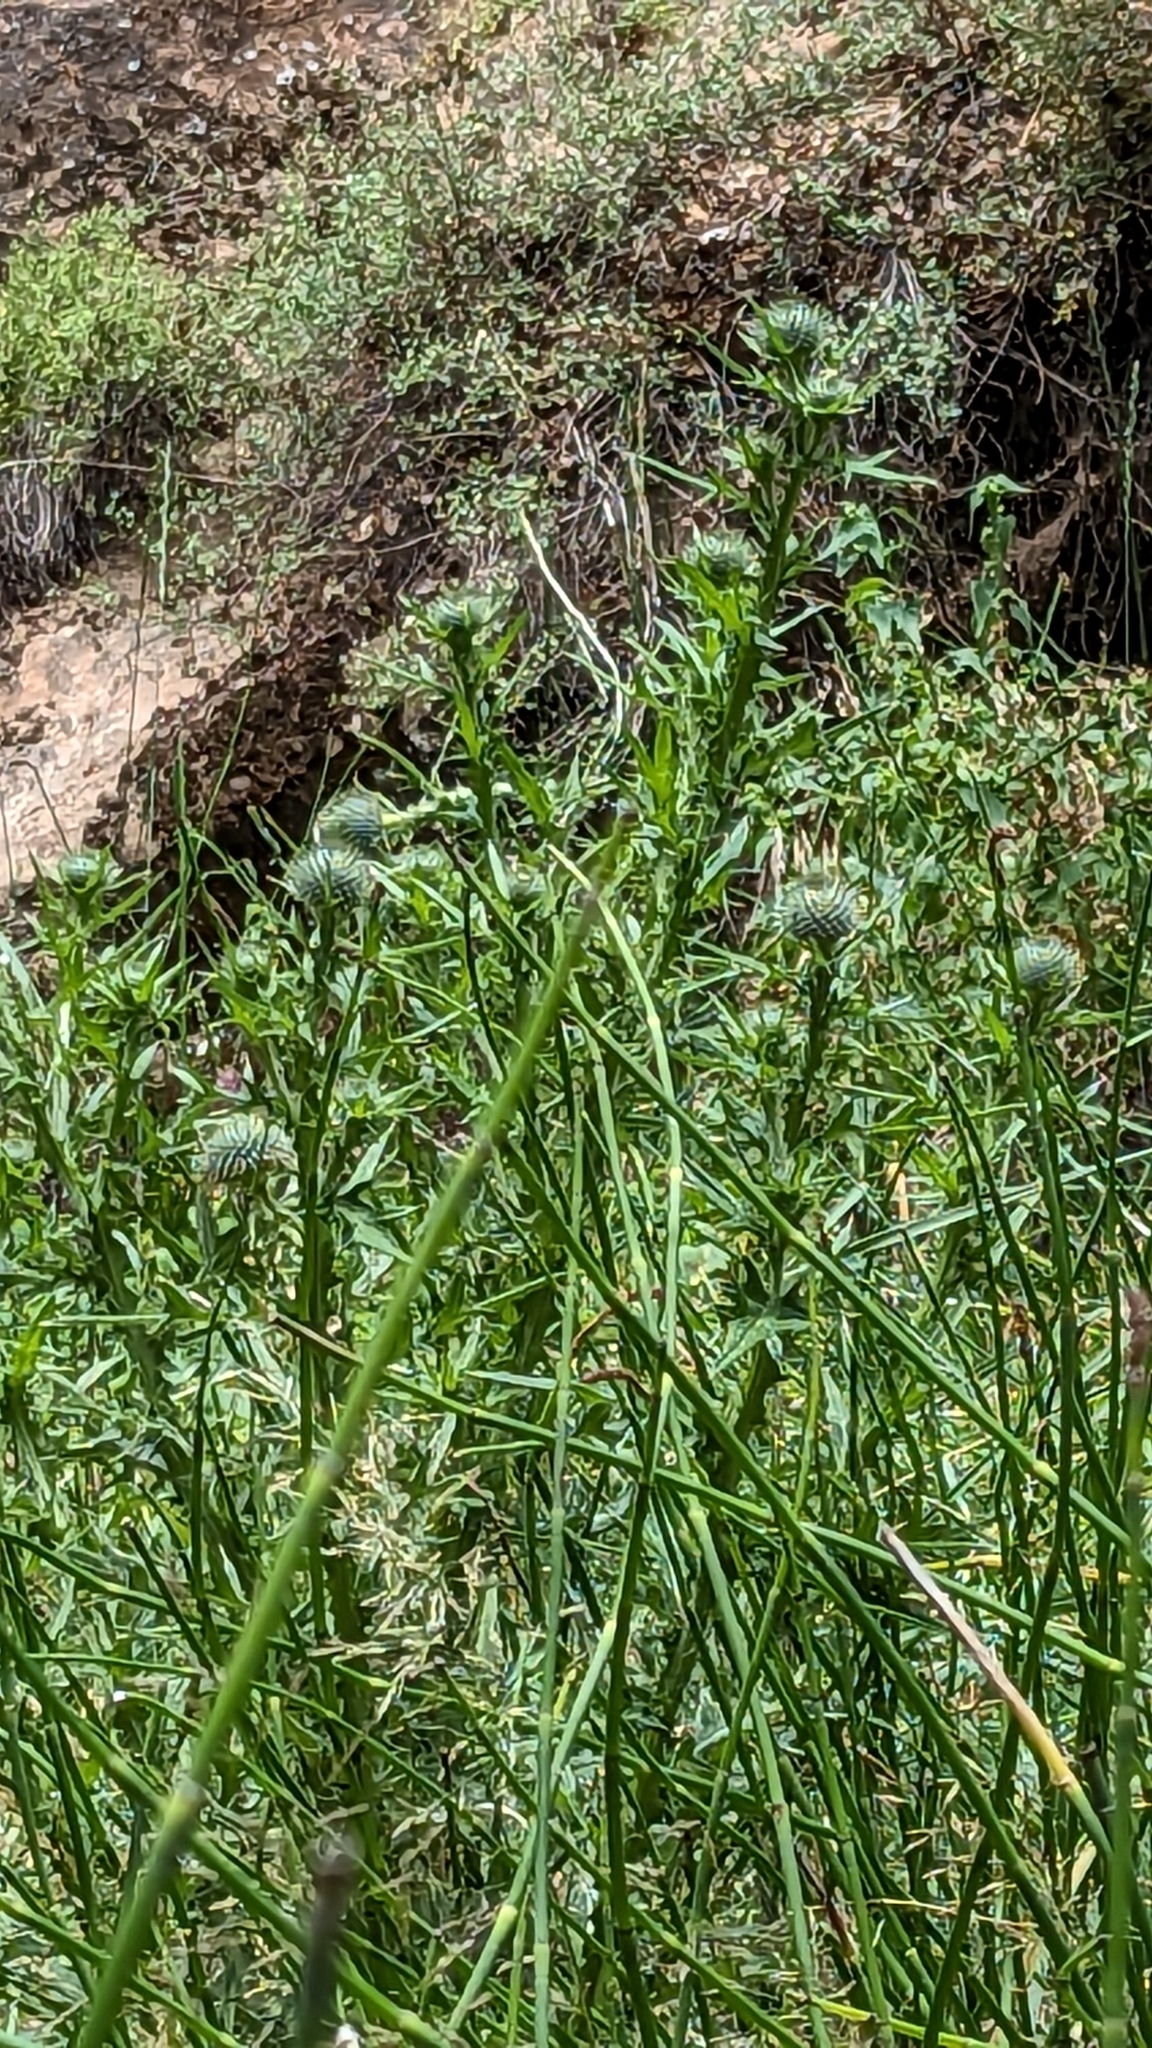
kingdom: Plantae
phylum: Tracheophyta
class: Magnoliopsida
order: Asterales
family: Asteraceae
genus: Cirsium
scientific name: Cirsium vulgare
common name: Bull thistle
